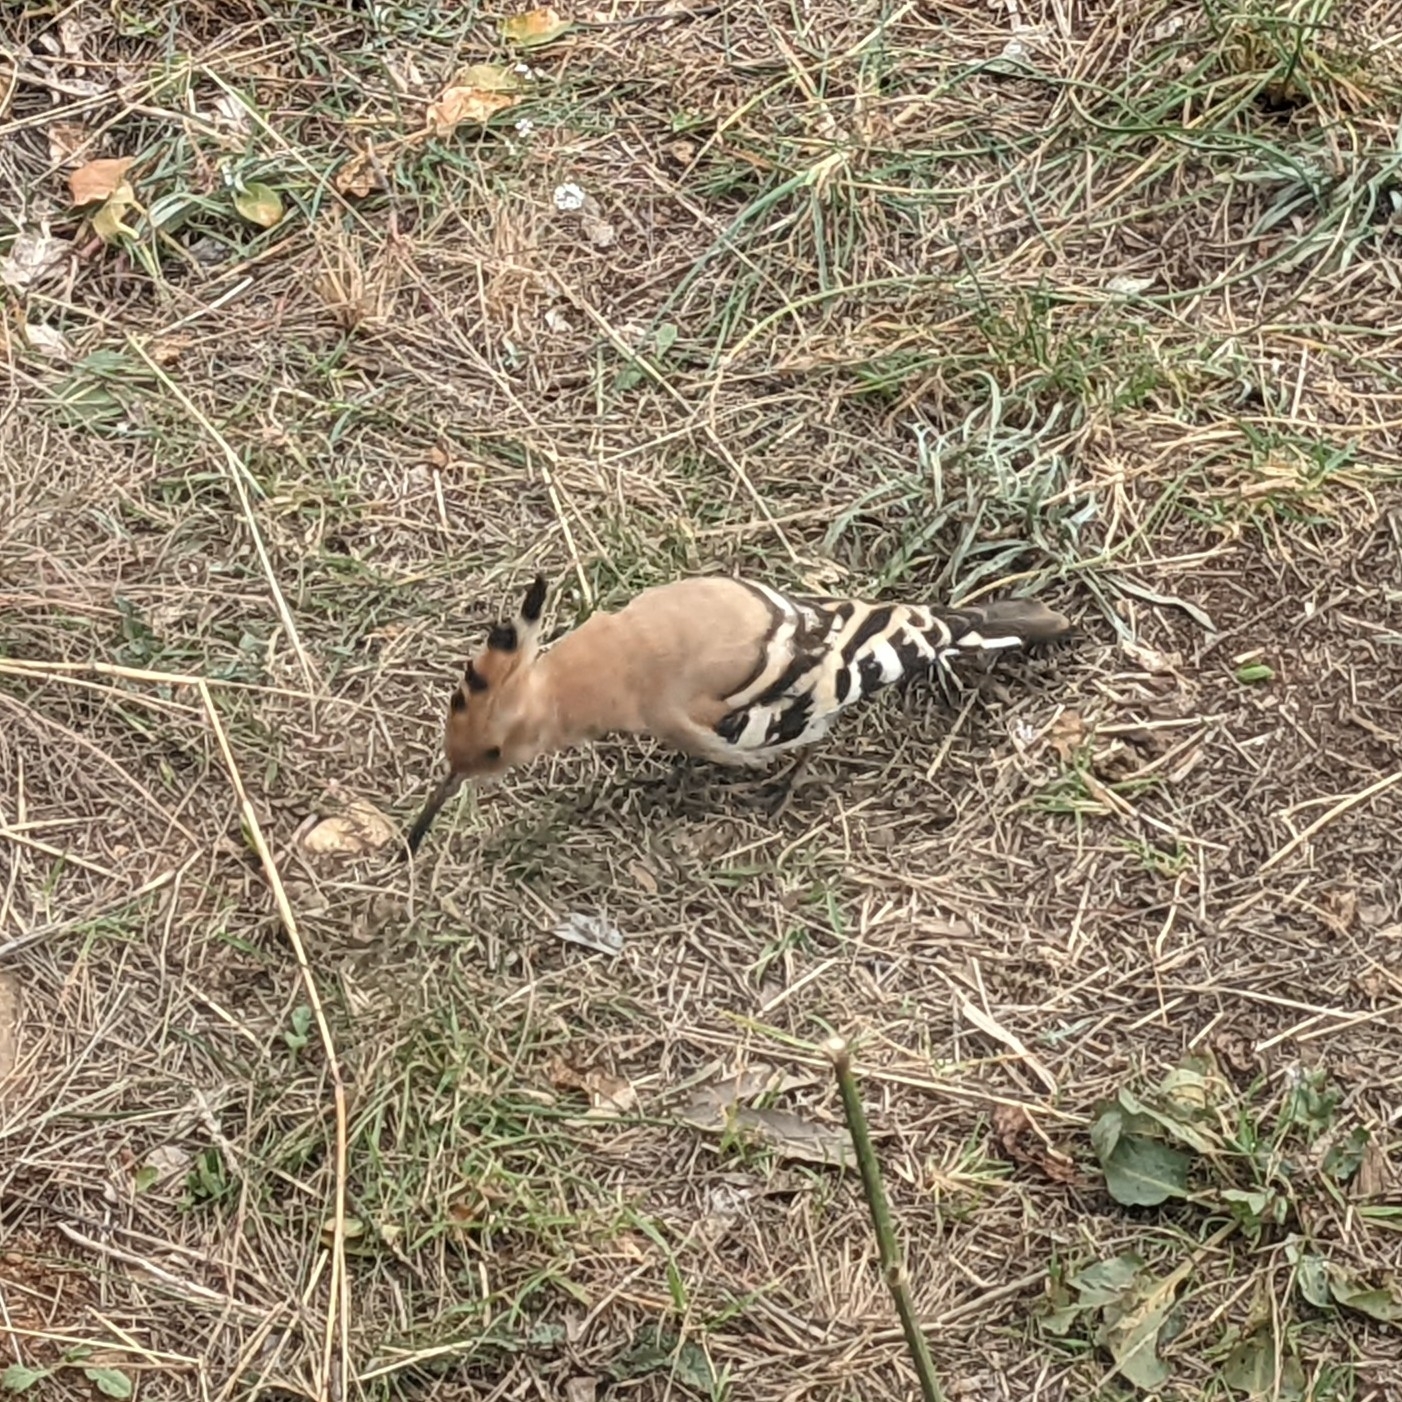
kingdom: Animalia
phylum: Chordata
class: Aves
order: Bucerotiformes
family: Upupidae
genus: Upupa
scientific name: Upupa epops
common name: Eurasian hoopoe
